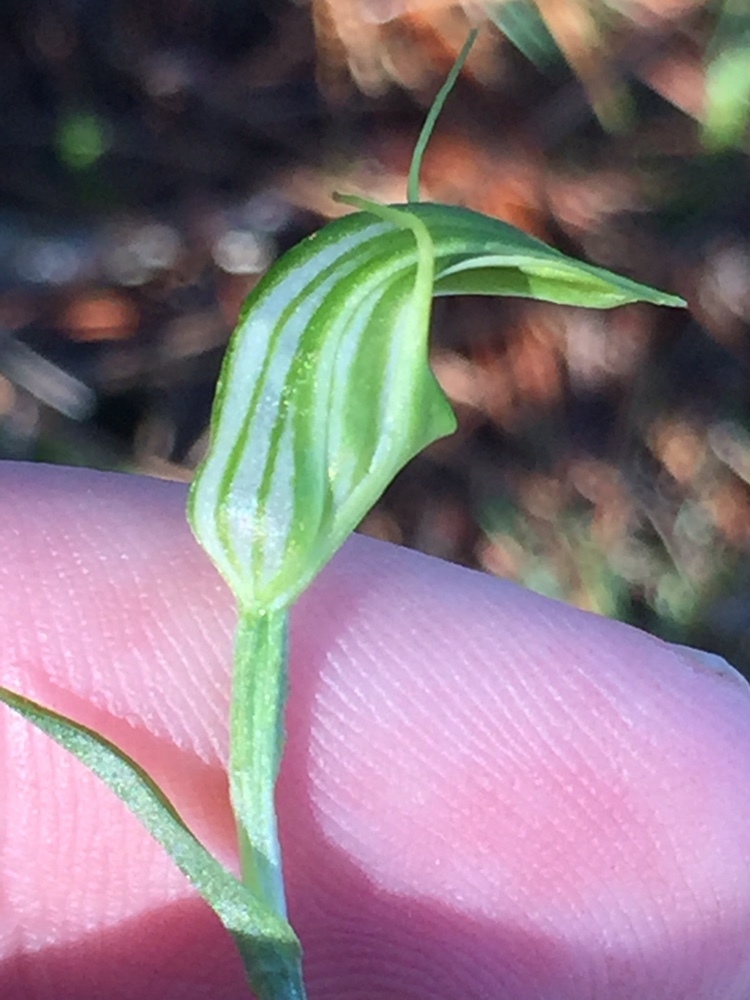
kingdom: Plantae
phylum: Tracheophyta
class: Liliopsida
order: Asparagales
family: Orchidaceae
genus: Pterostylis
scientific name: Pterostylis trullifolia
